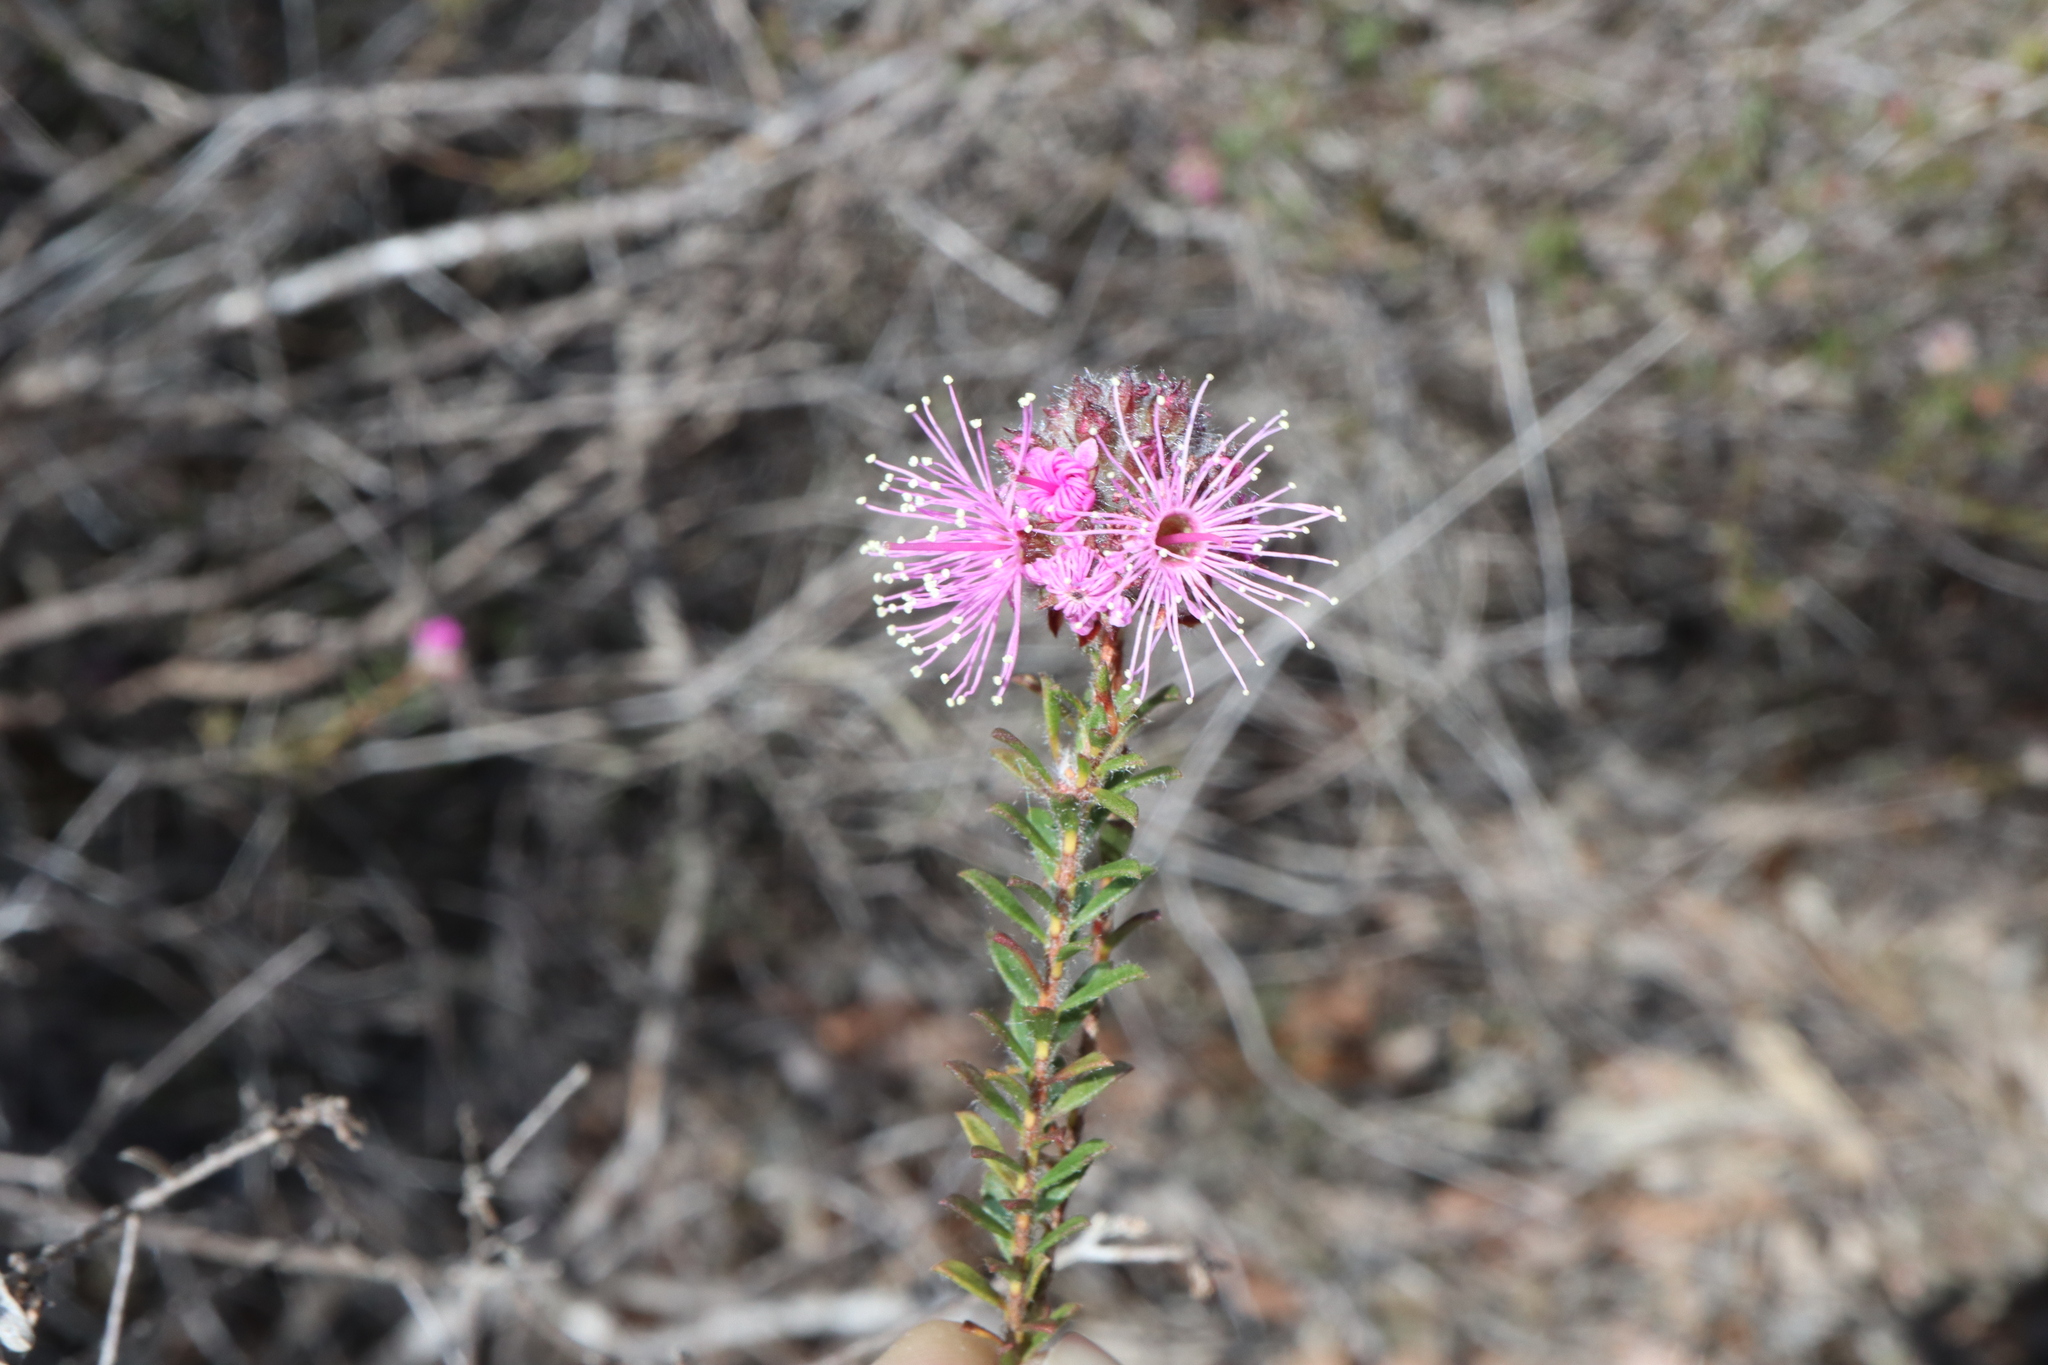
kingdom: Plantae
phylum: Tracheophyta
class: Magnoliopsida
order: Myrtales
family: Myrtaceae
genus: Kunzea
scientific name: Kunzea capitata
